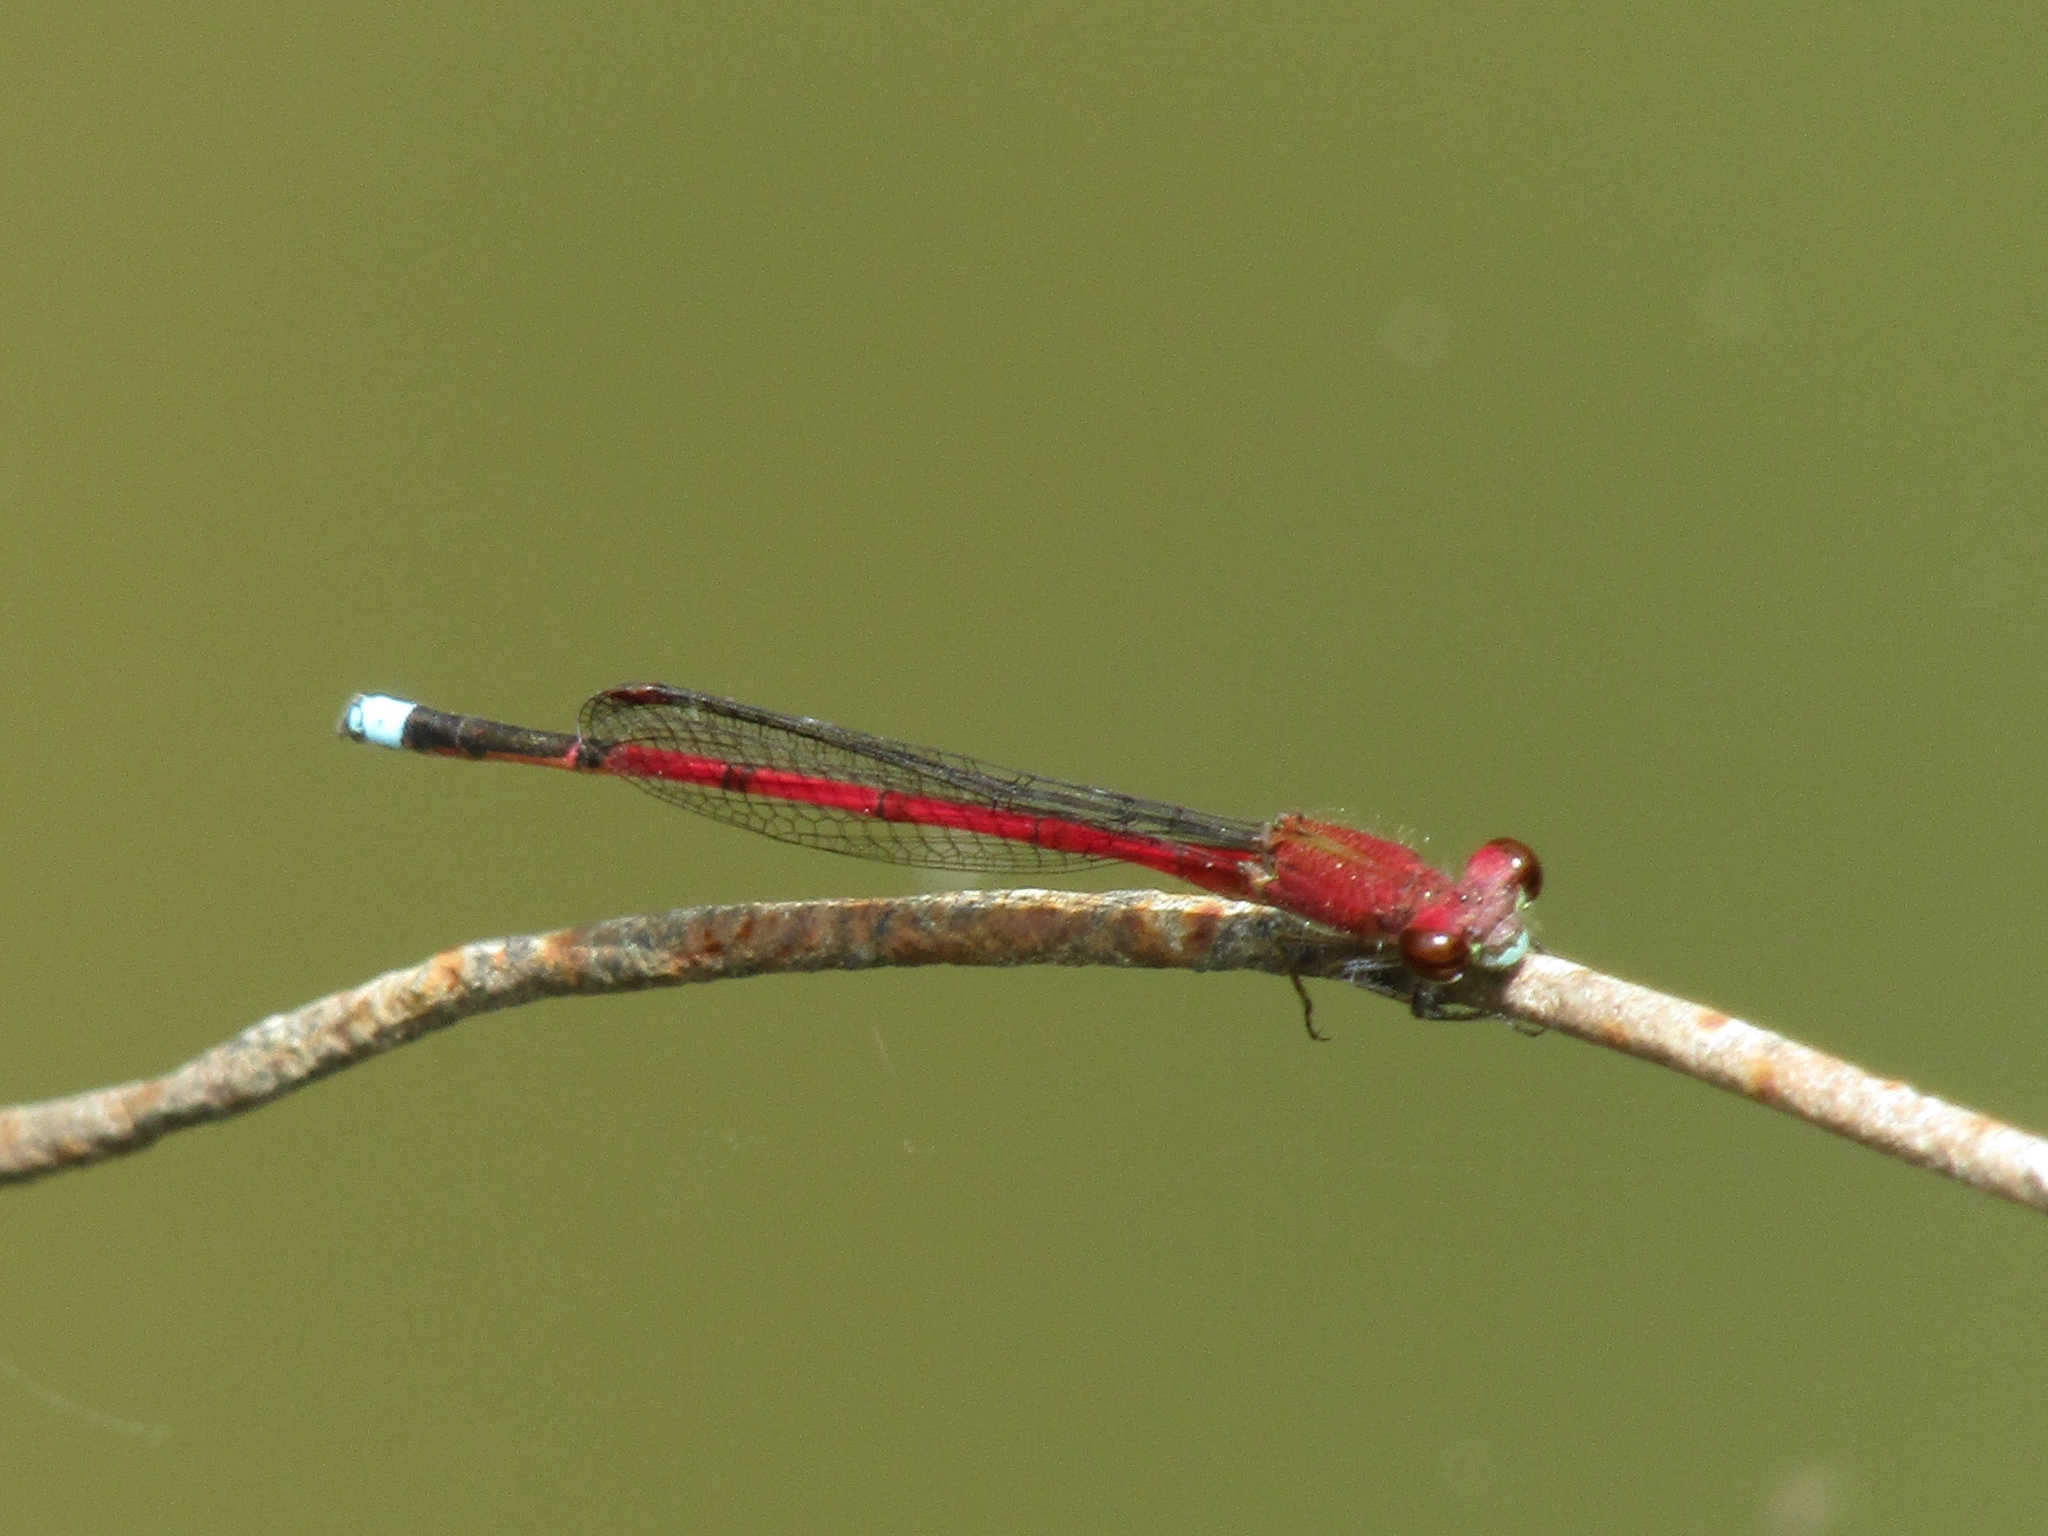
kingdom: Animalia
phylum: Arthropoda
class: Insecta
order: Odonata
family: Coenagrionidae
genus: Oxyagrion
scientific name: Oxyagrion terminale
